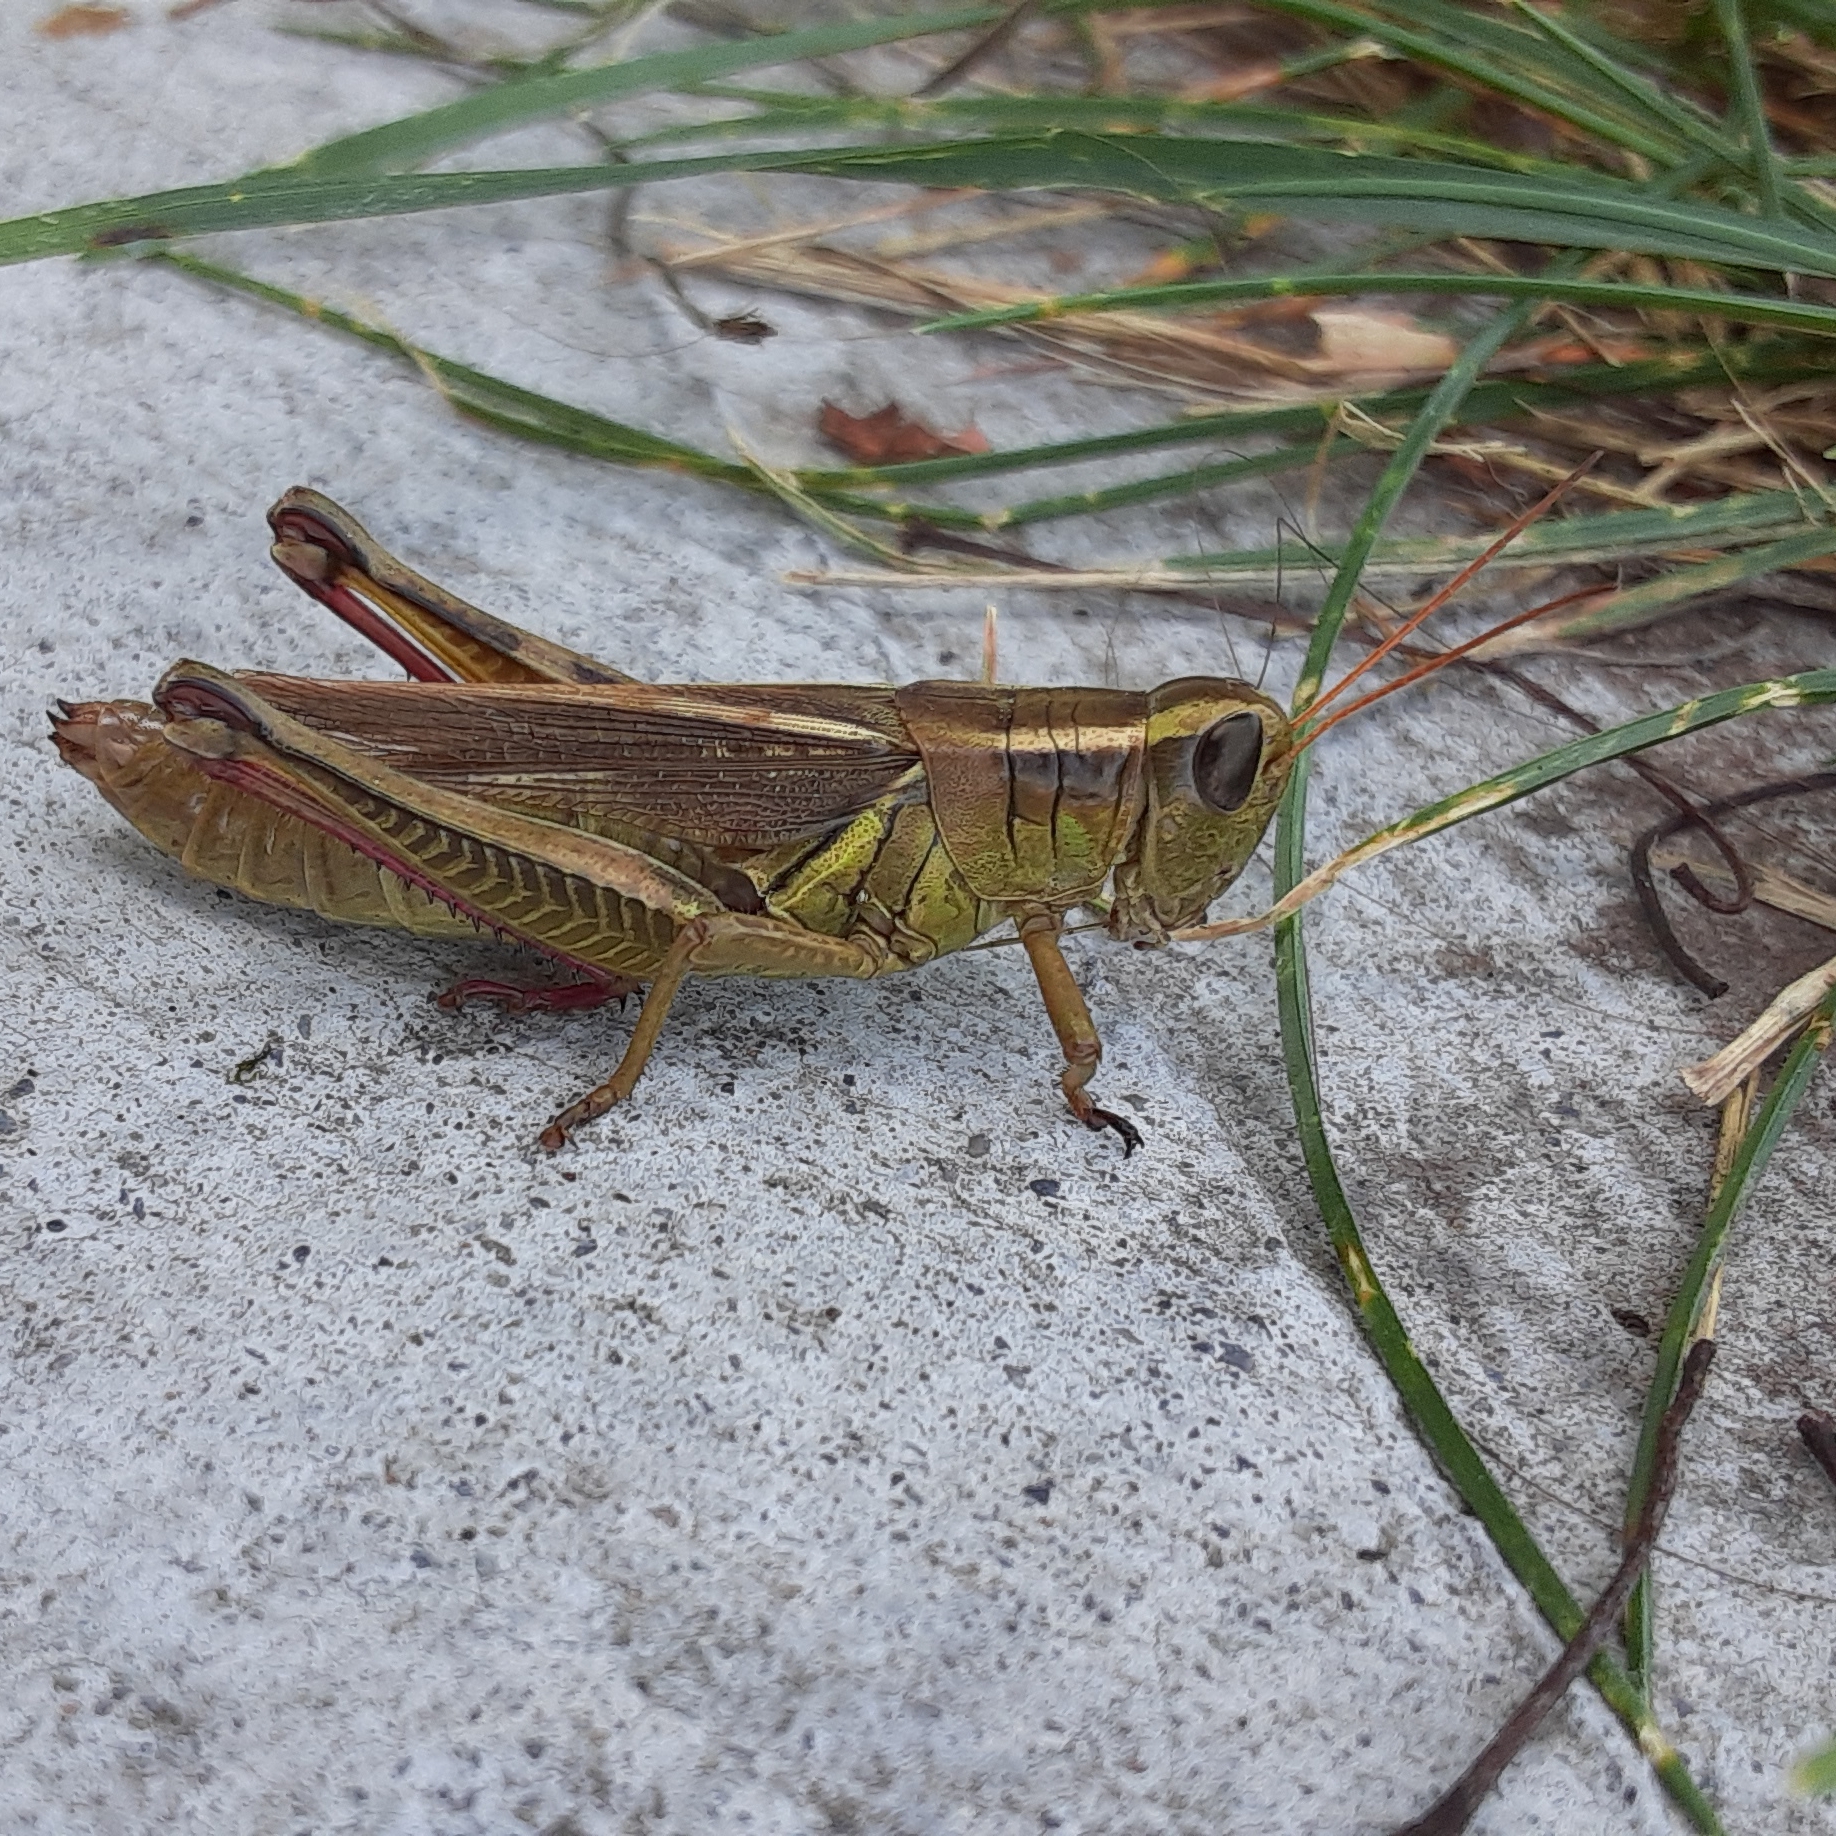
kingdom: Animalia
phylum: Arthropoda
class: Insecta
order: Orthoptera
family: Acrididae
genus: Melanoplus
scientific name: Melanoplus bivittatus
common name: Two-striped grasshopper
